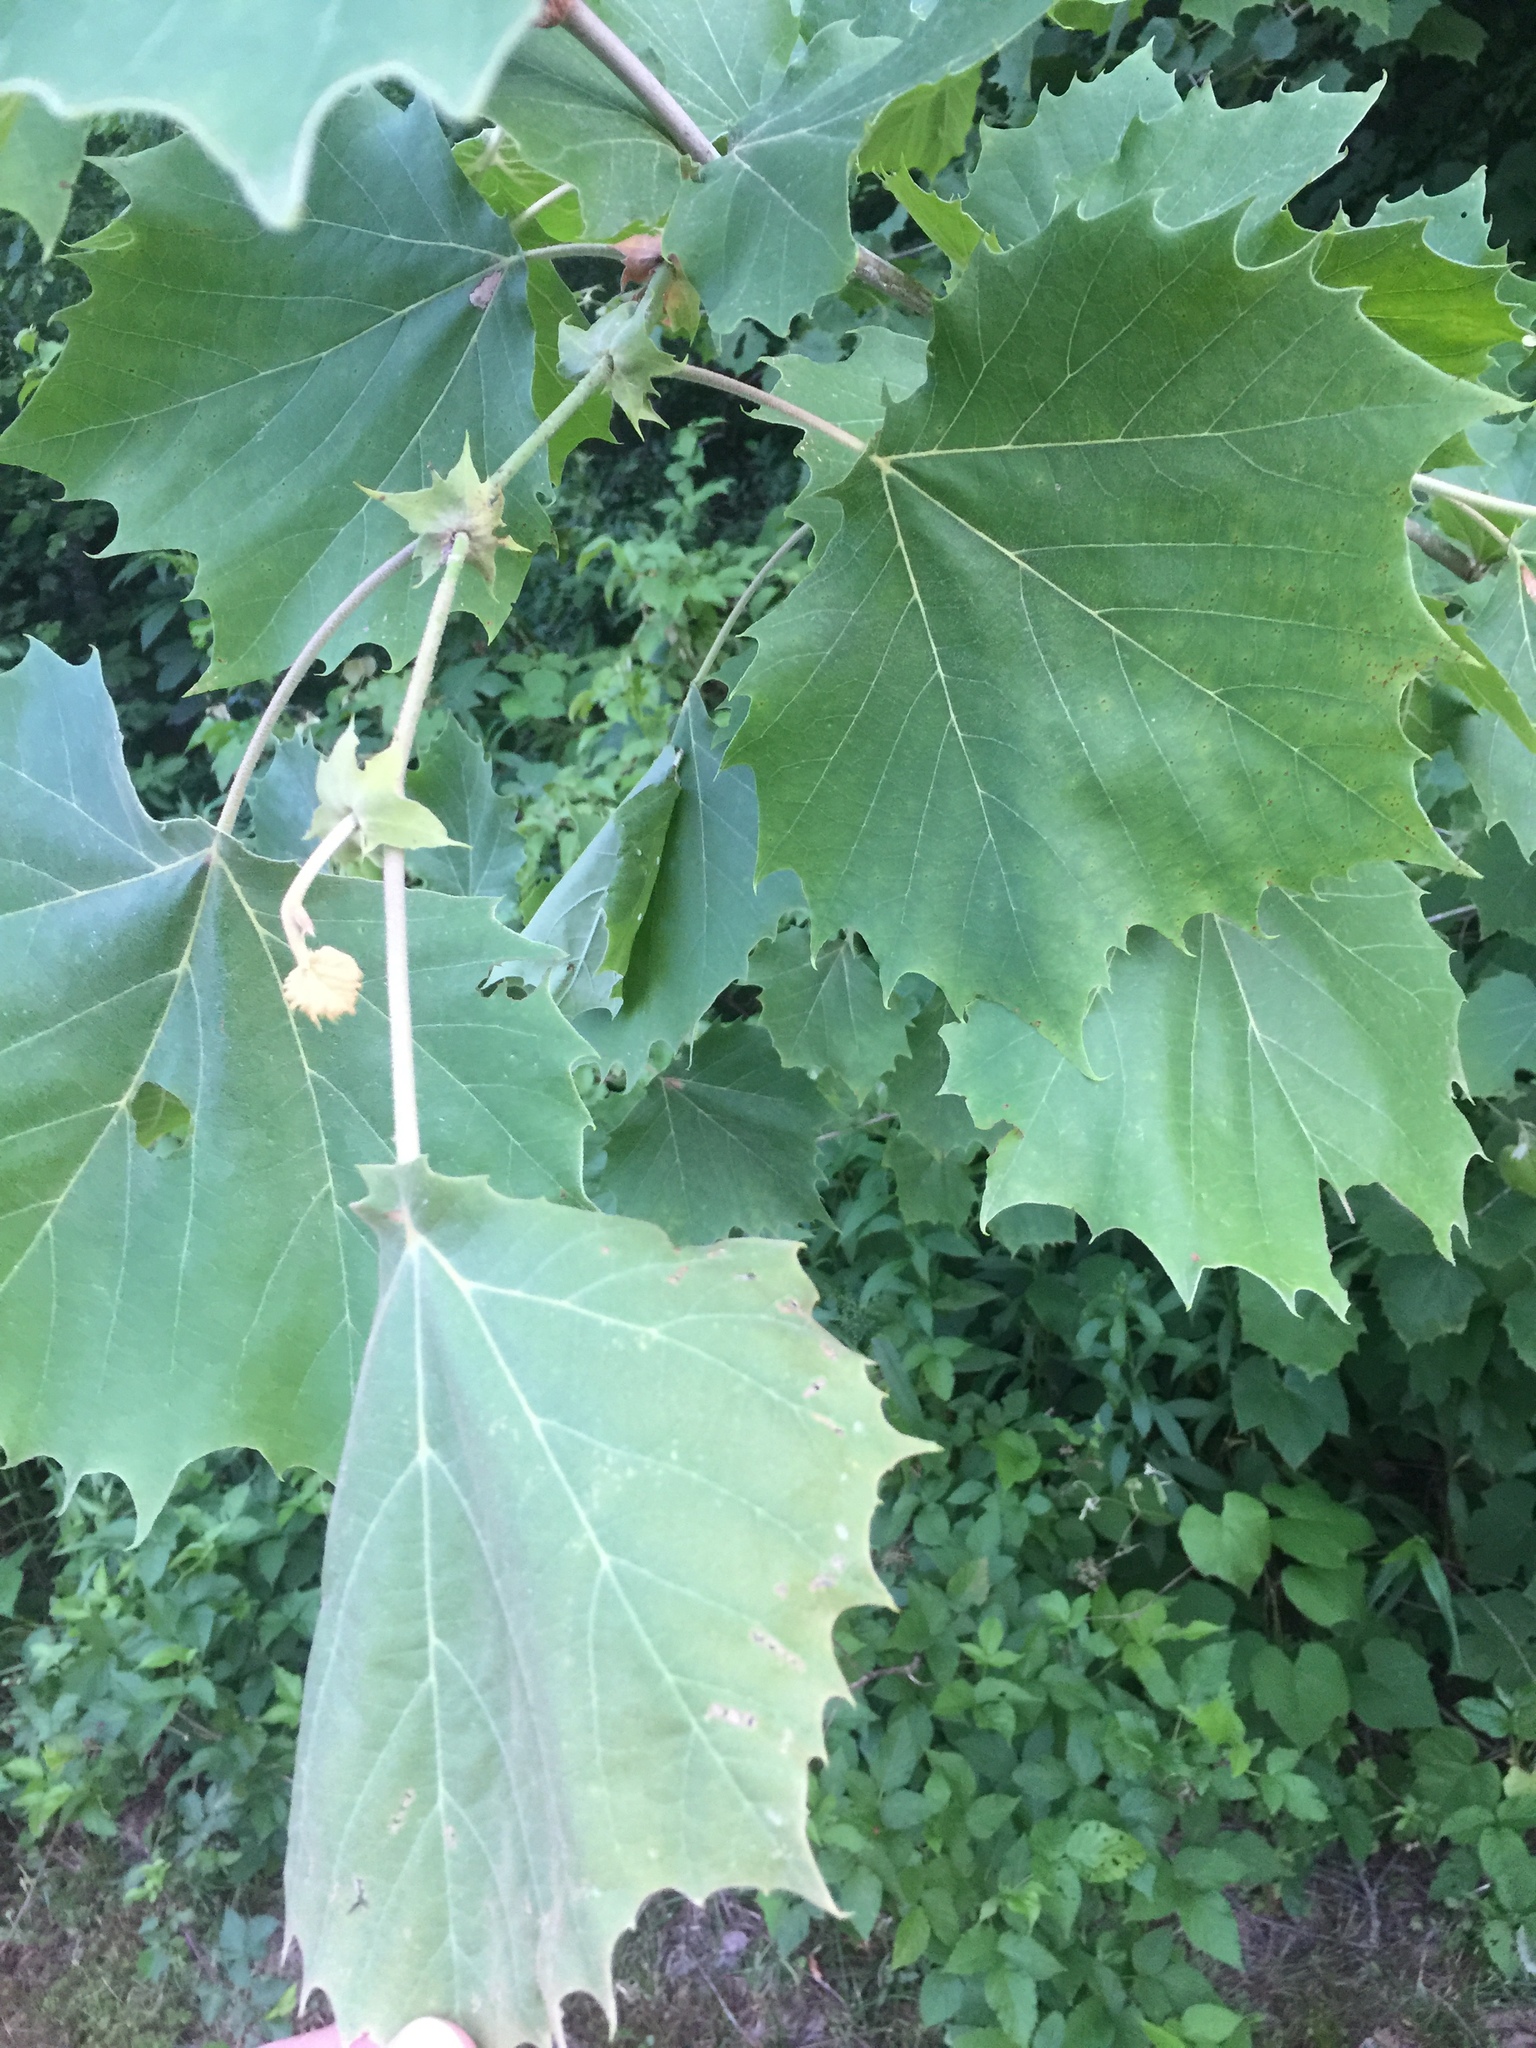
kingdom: Plantae
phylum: Tracheophyta
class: Magnoliopsida
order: Proteales
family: Platanaceae
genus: Platanus
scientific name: Platanus occidentalis
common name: American sycamore
